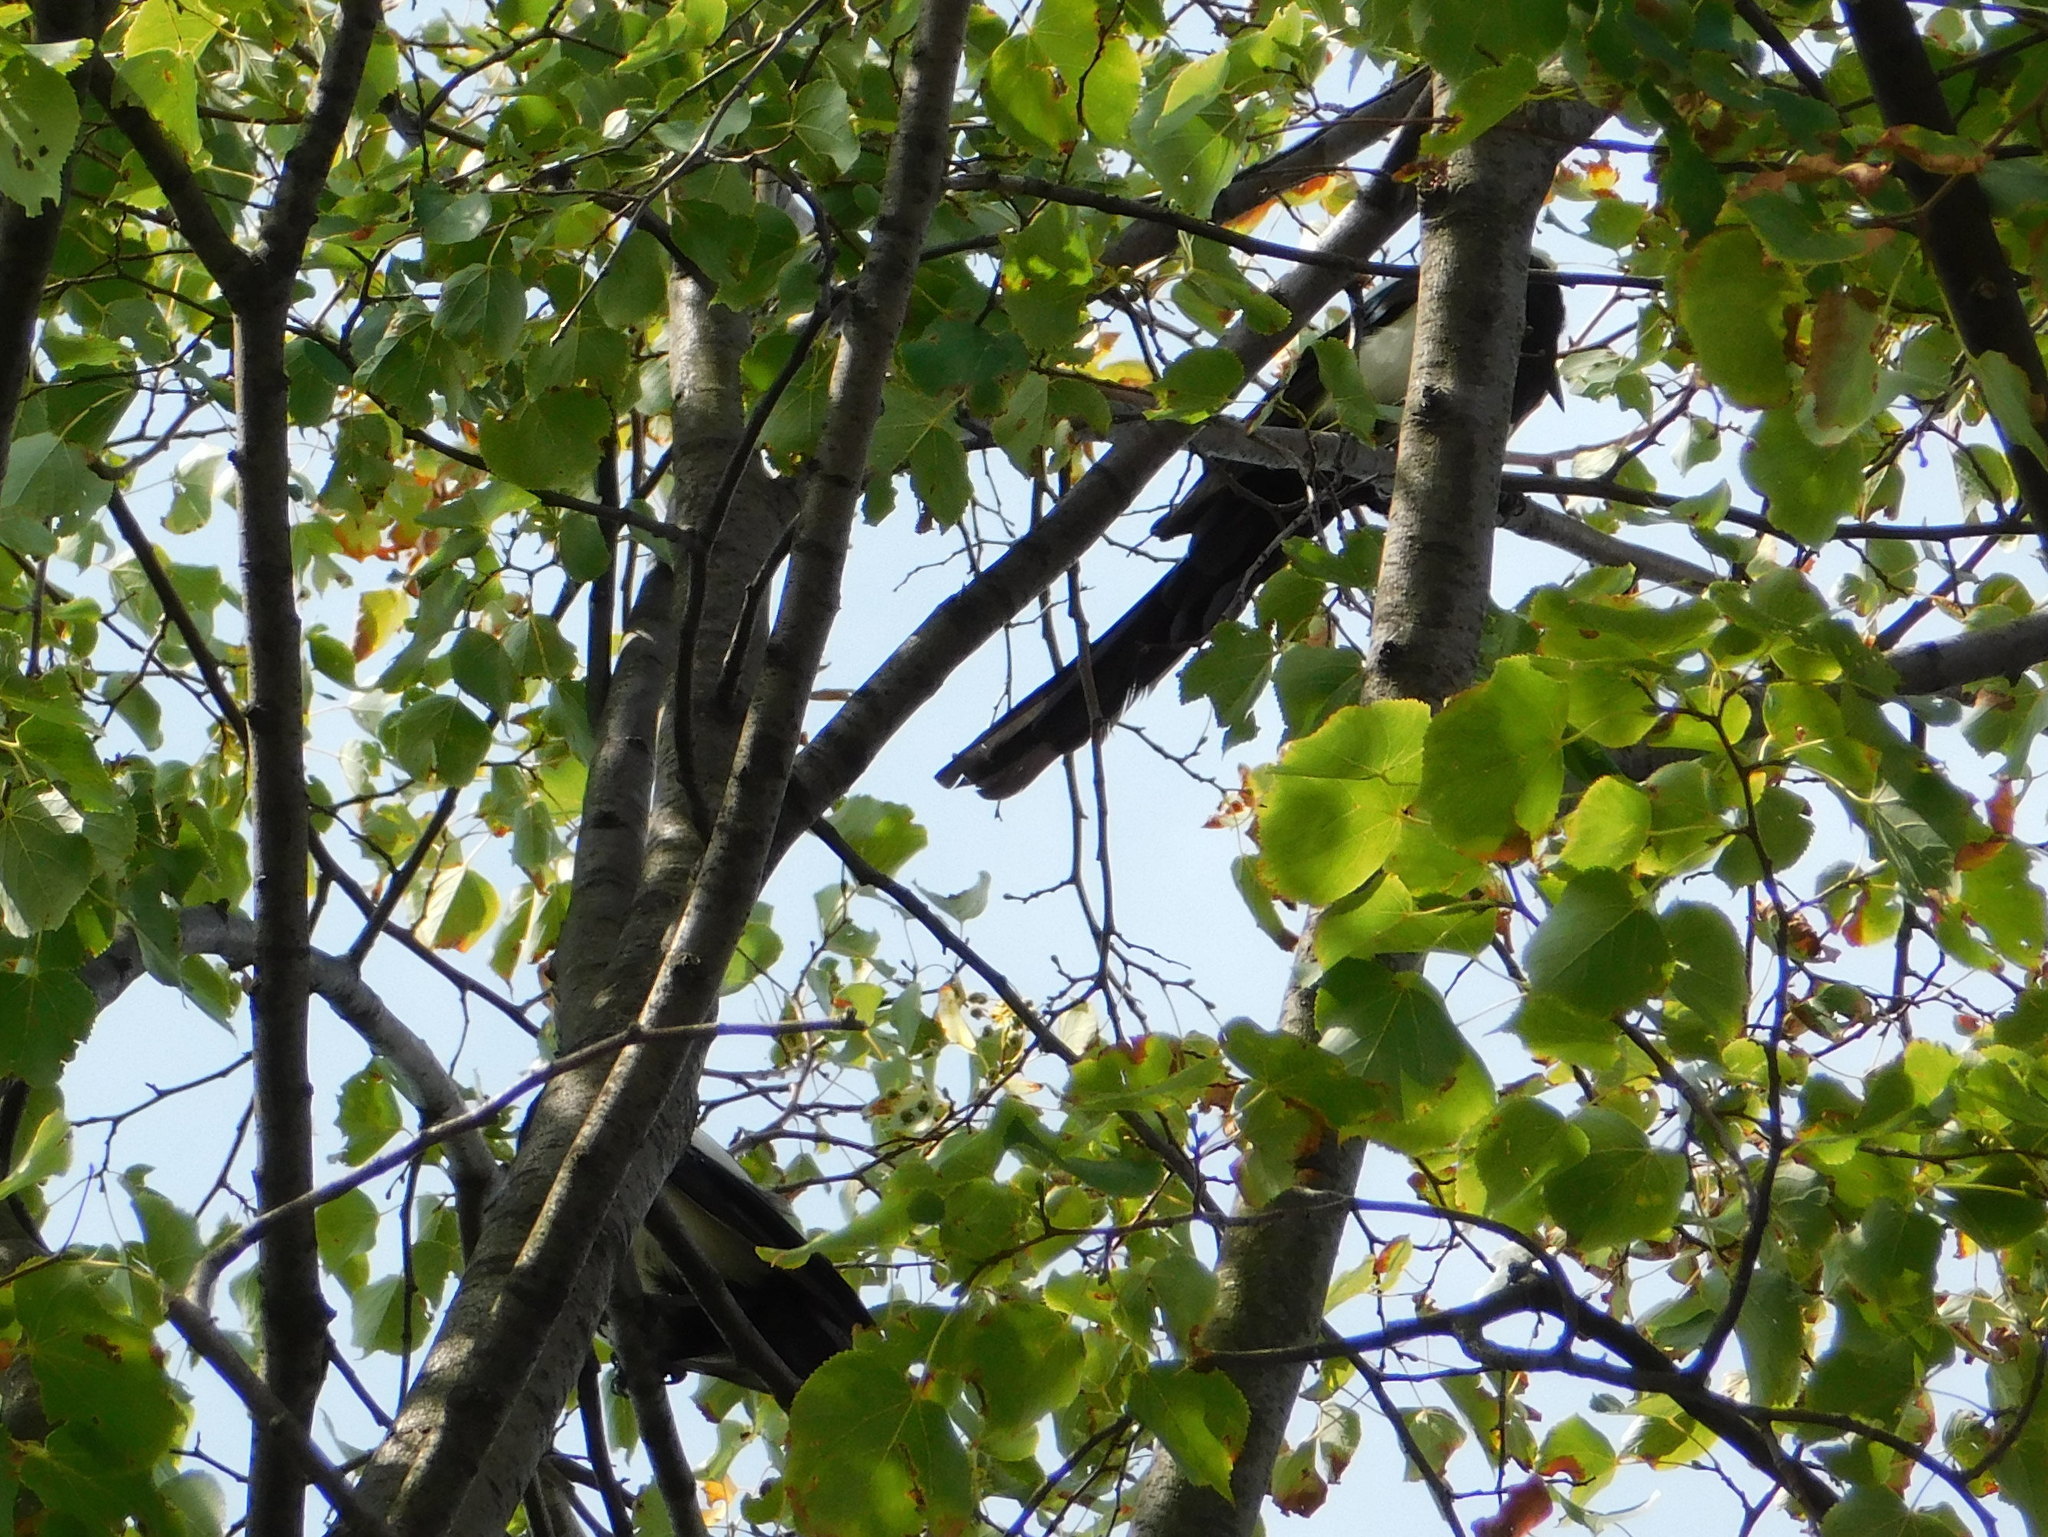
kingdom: Animalia
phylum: Chordata
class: Aves
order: Passeriformes
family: Corvidae
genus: Pica
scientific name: Pica pica
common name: Eurasian magpie
